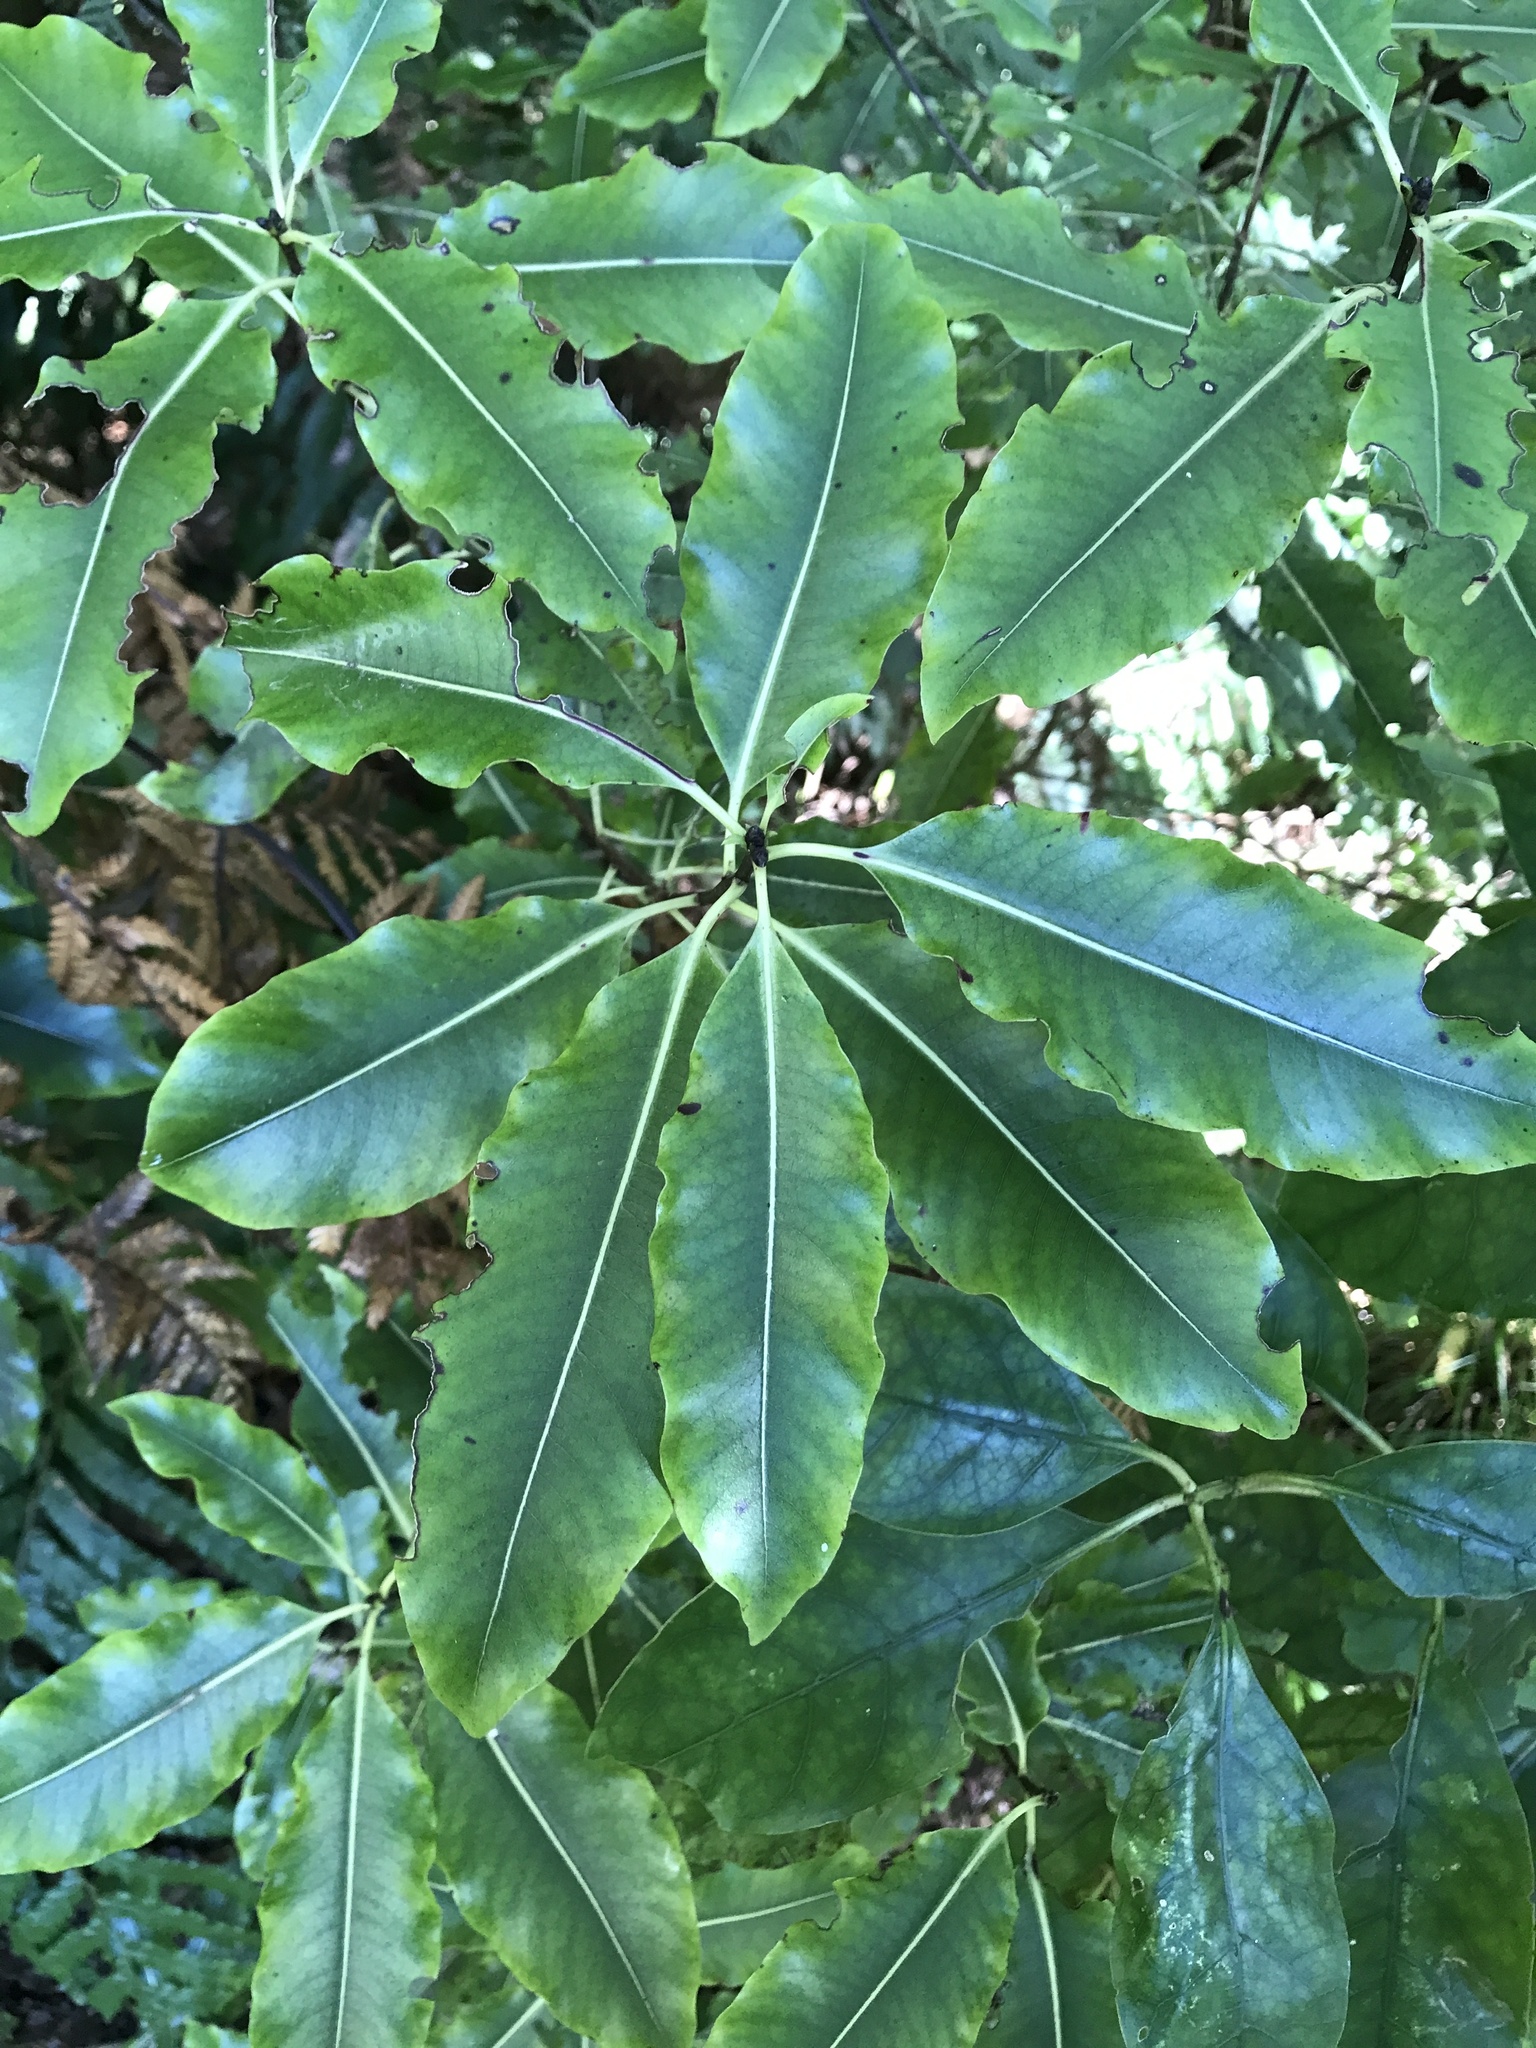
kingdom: Plantae
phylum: Tracheophyta
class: Magnoliopsida
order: Apiales
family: Pittosporaceae
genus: Pittosporum
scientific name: Pittosporum eugenioides
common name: Lemonwood
